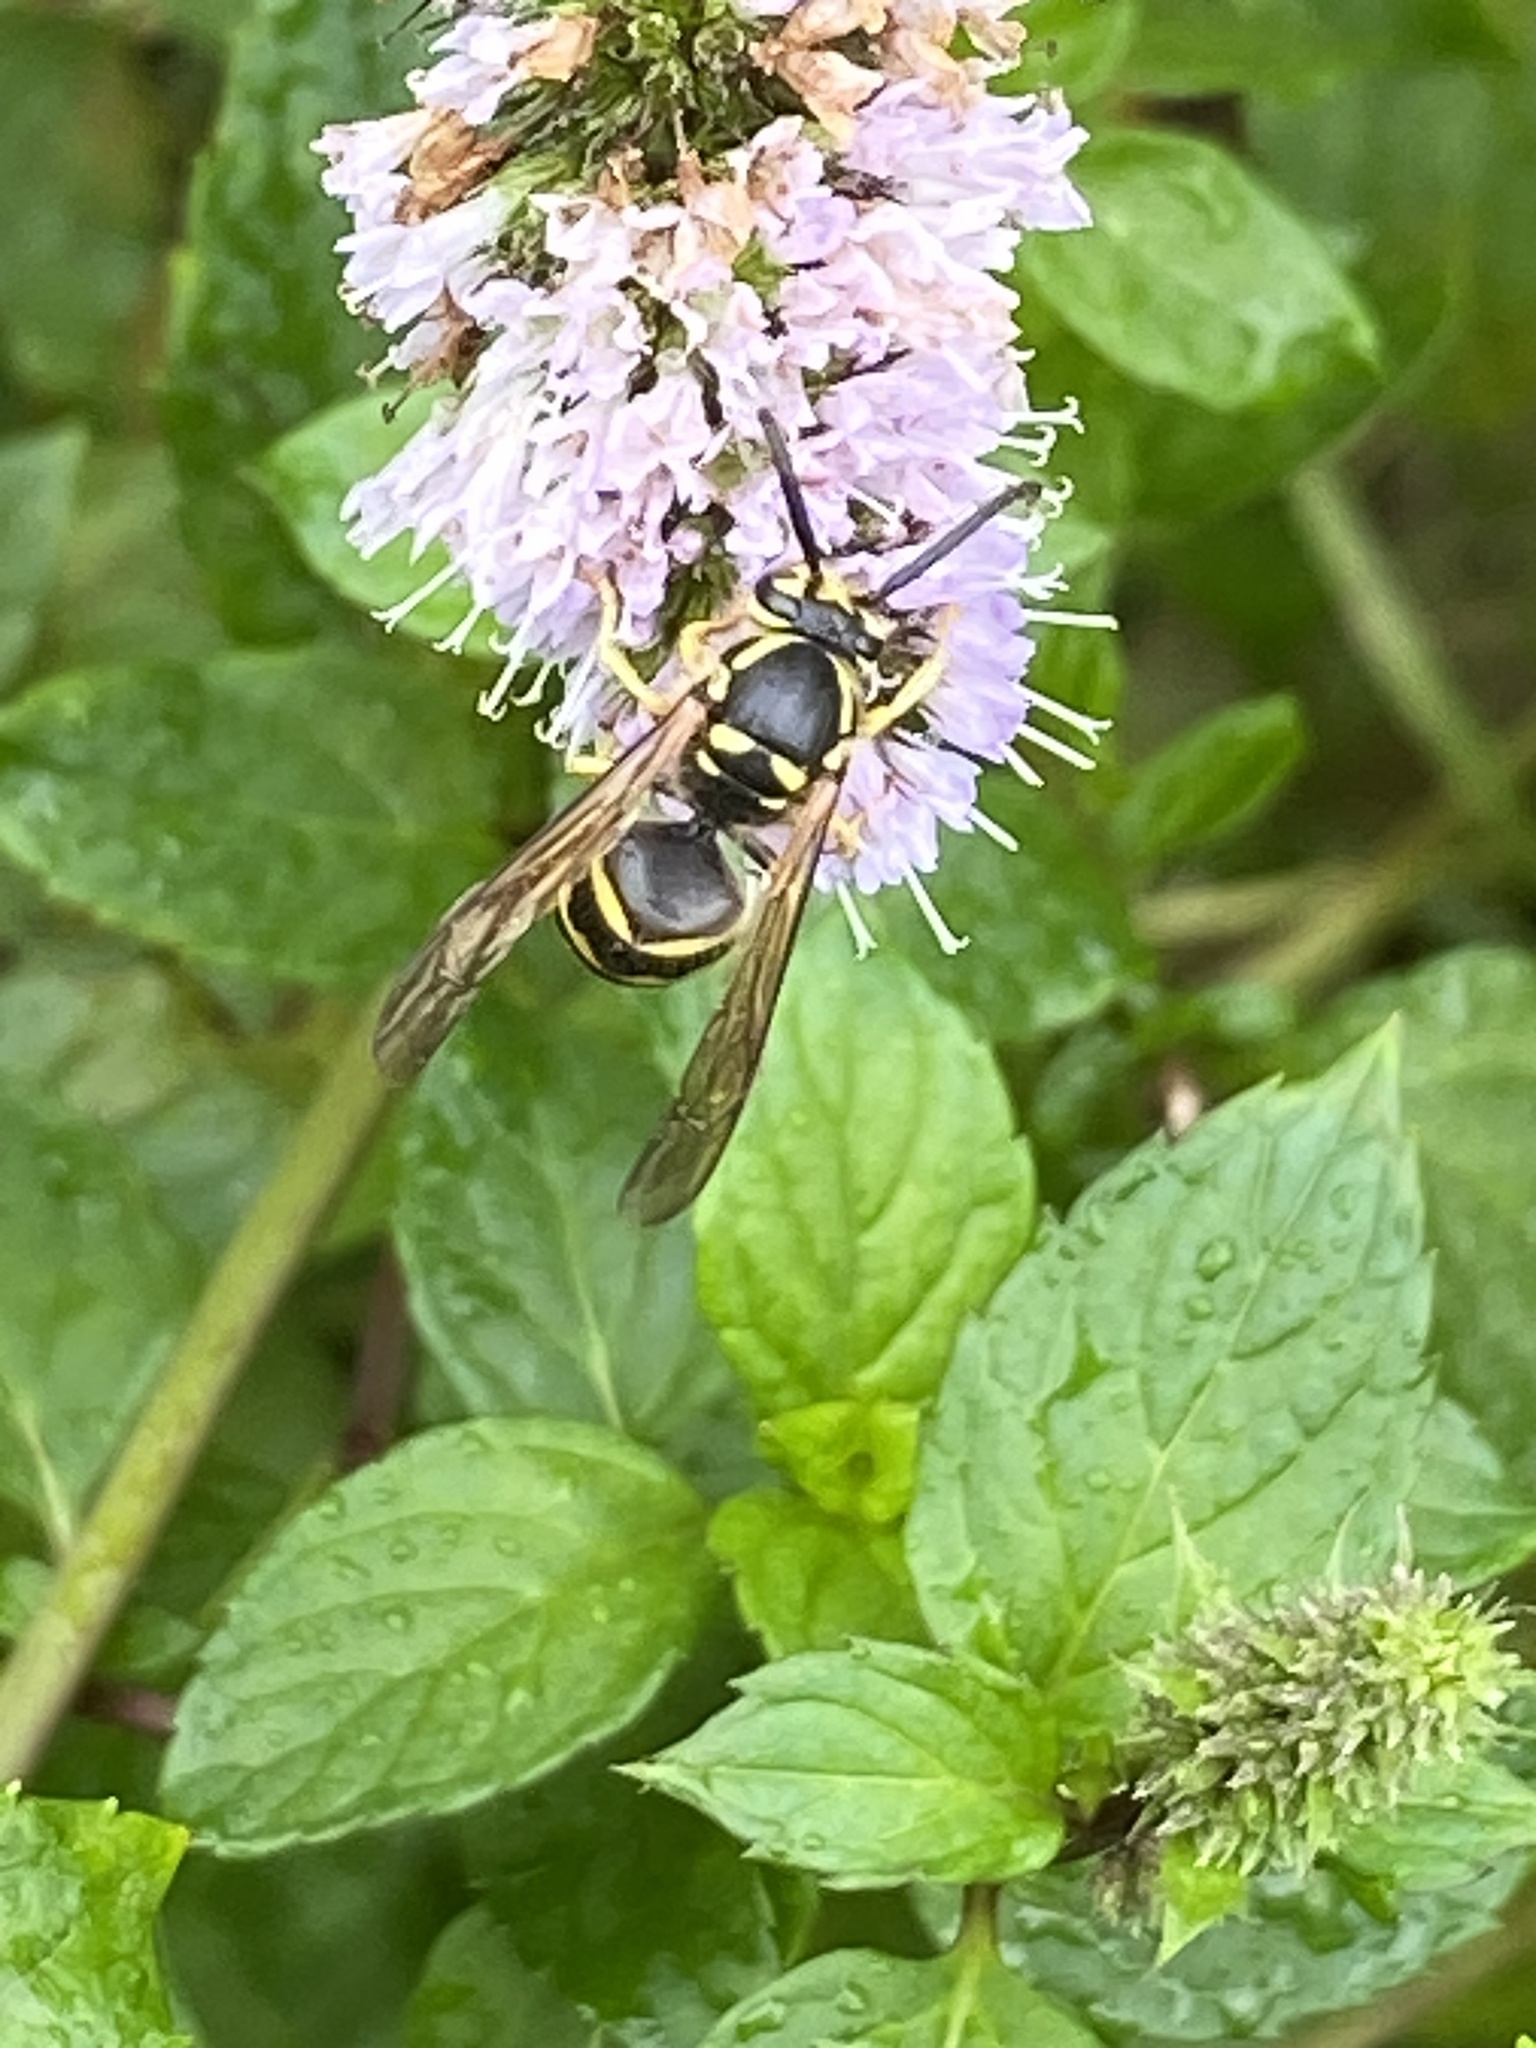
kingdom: Animalia
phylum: Arthropoda
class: Insecta
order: Hymenoptera
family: Vespidae
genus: Dolichovespula
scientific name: Dolichovespula arenaria
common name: Aerial yellowjacket
